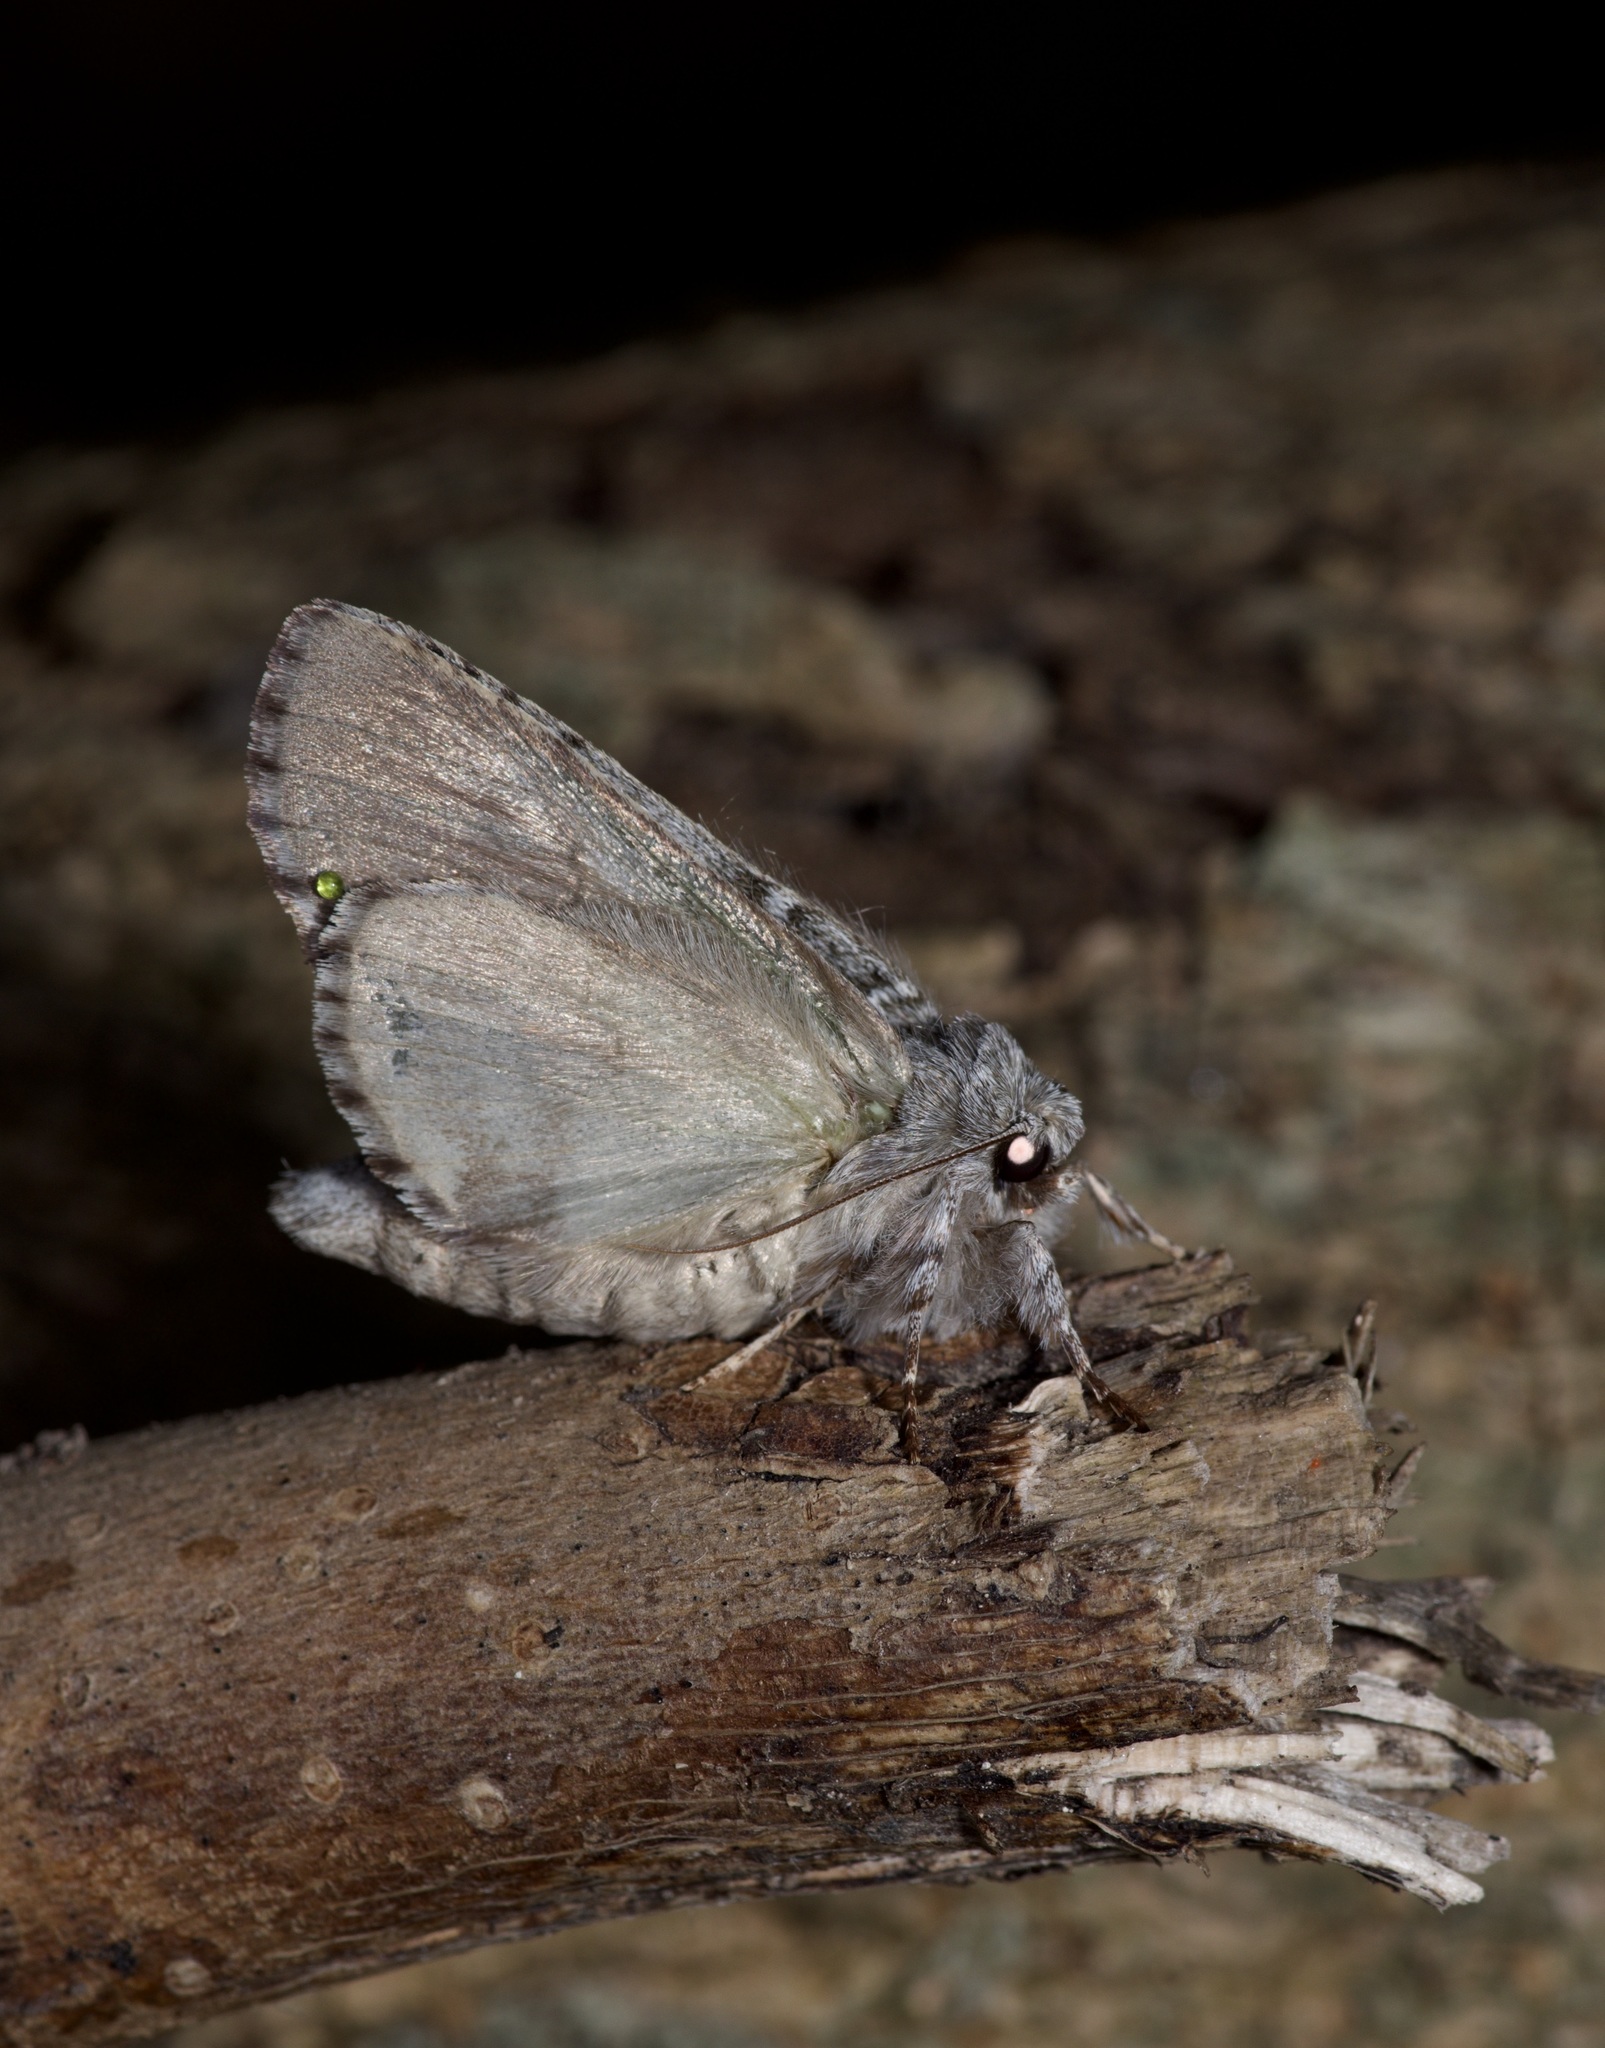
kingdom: Animalia
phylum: Arthropoda
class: Insecta
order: Lepidoptera
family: Notodontidae
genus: Lochmaeus
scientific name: Lochmaeus bilineata
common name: Double-lined prominent
